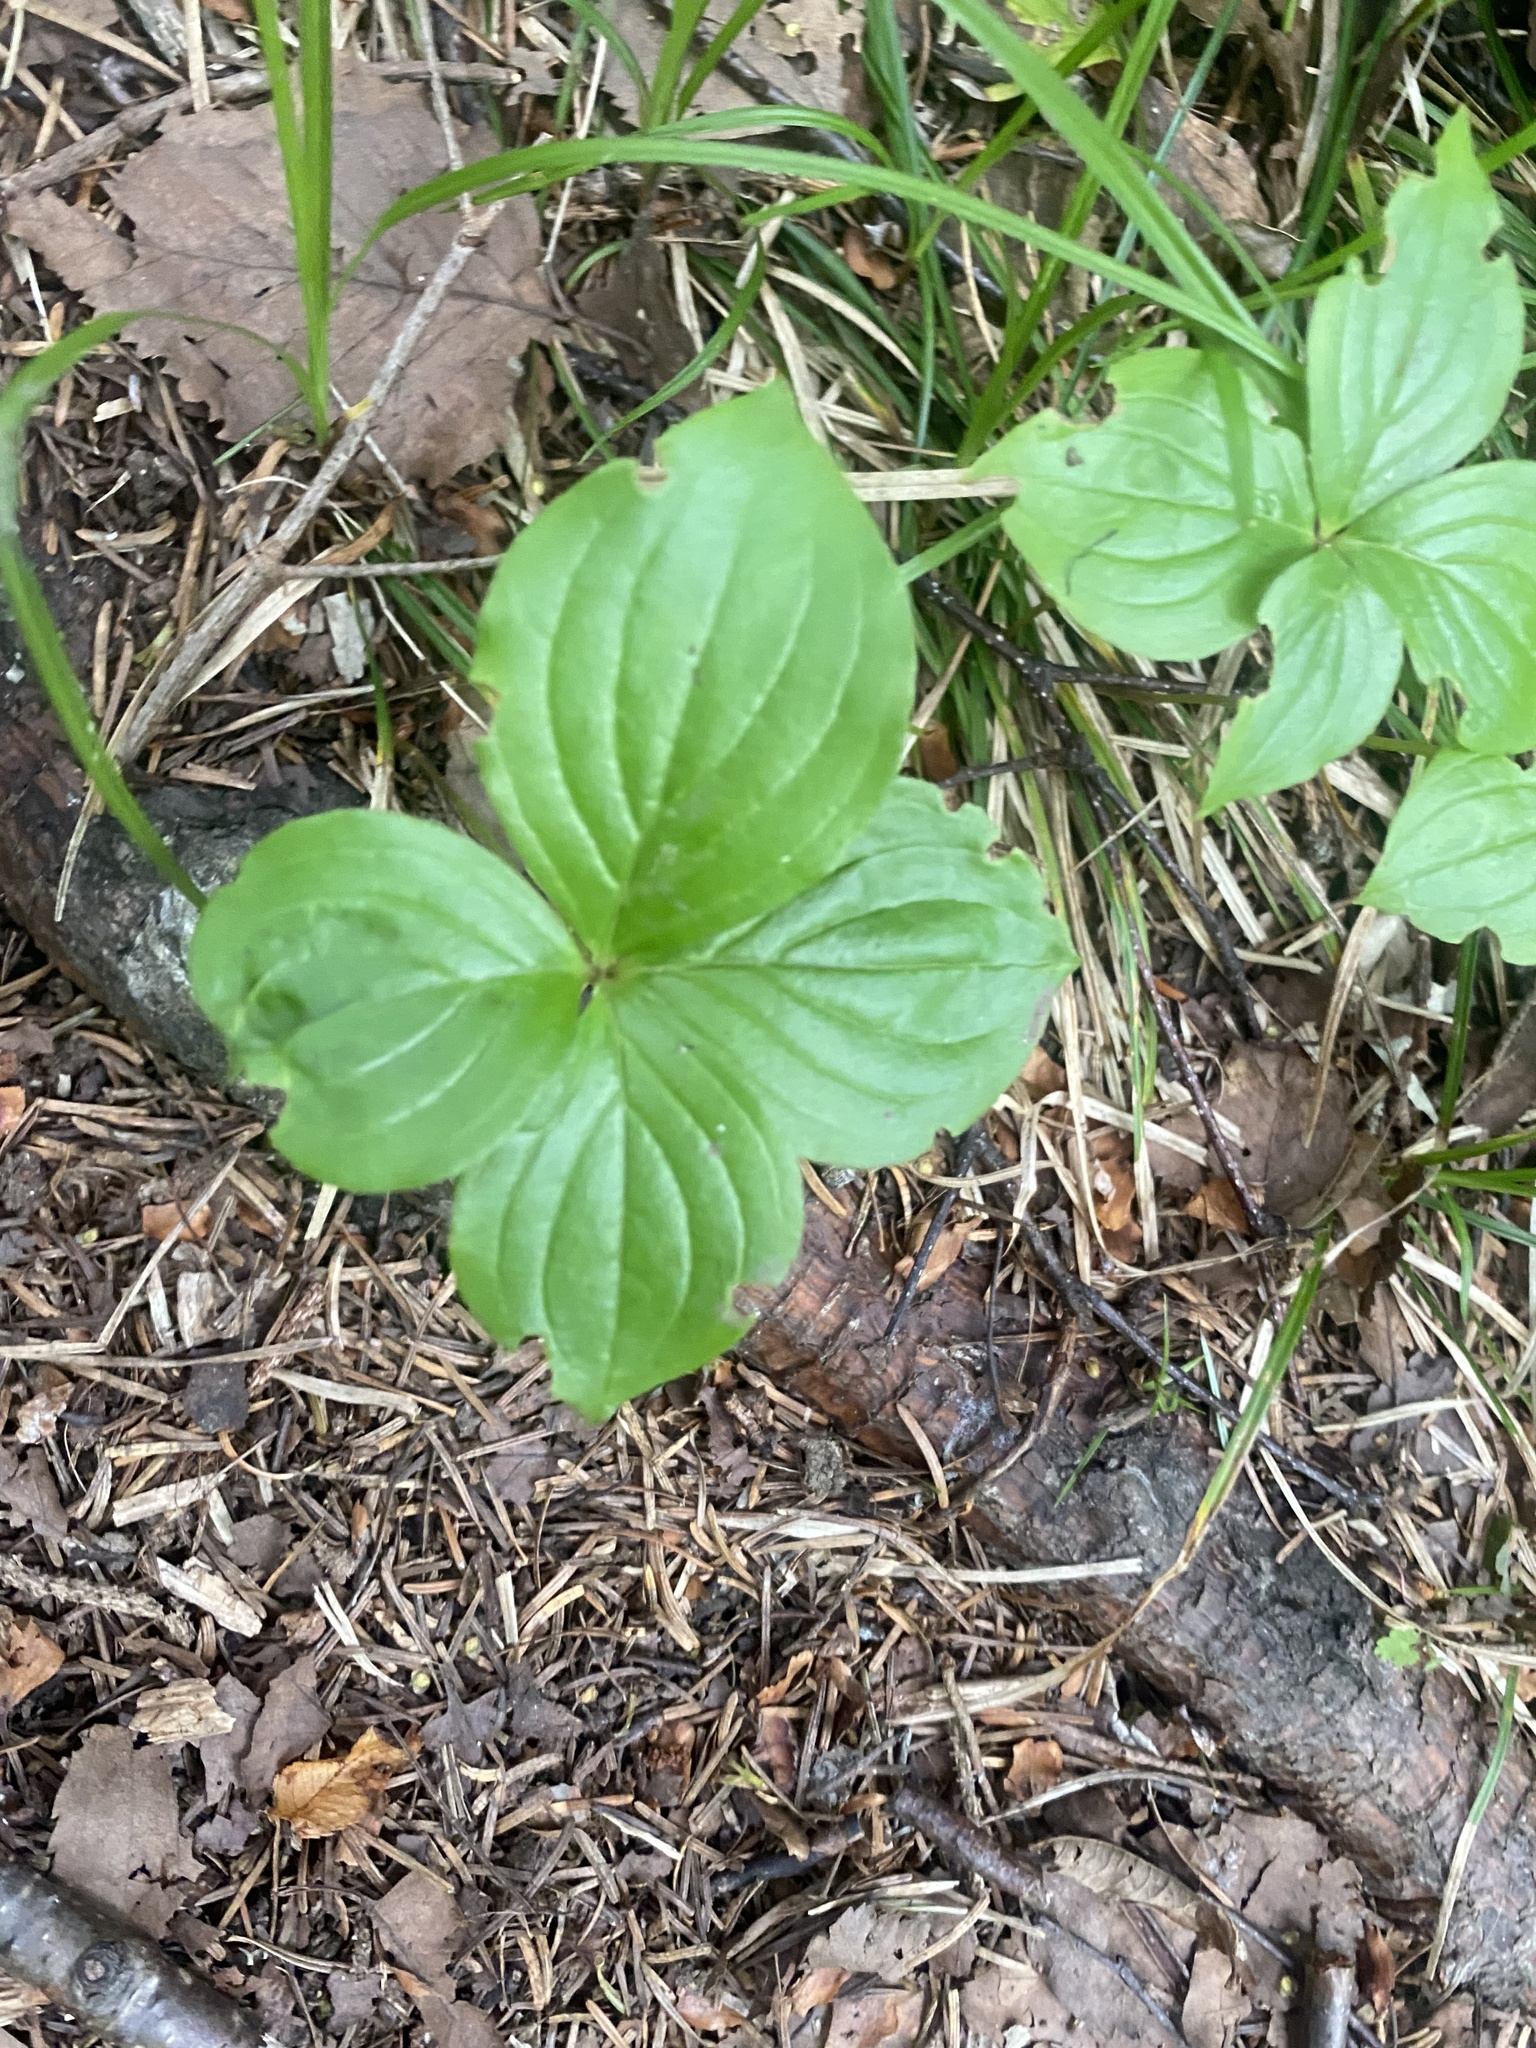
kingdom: Plantae
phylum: Tracheophyta
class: Magnoliopsida
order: Cornales
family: Cornaceae
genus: Cornus
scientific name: Cornus canadensis
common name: Creeping dogwood
